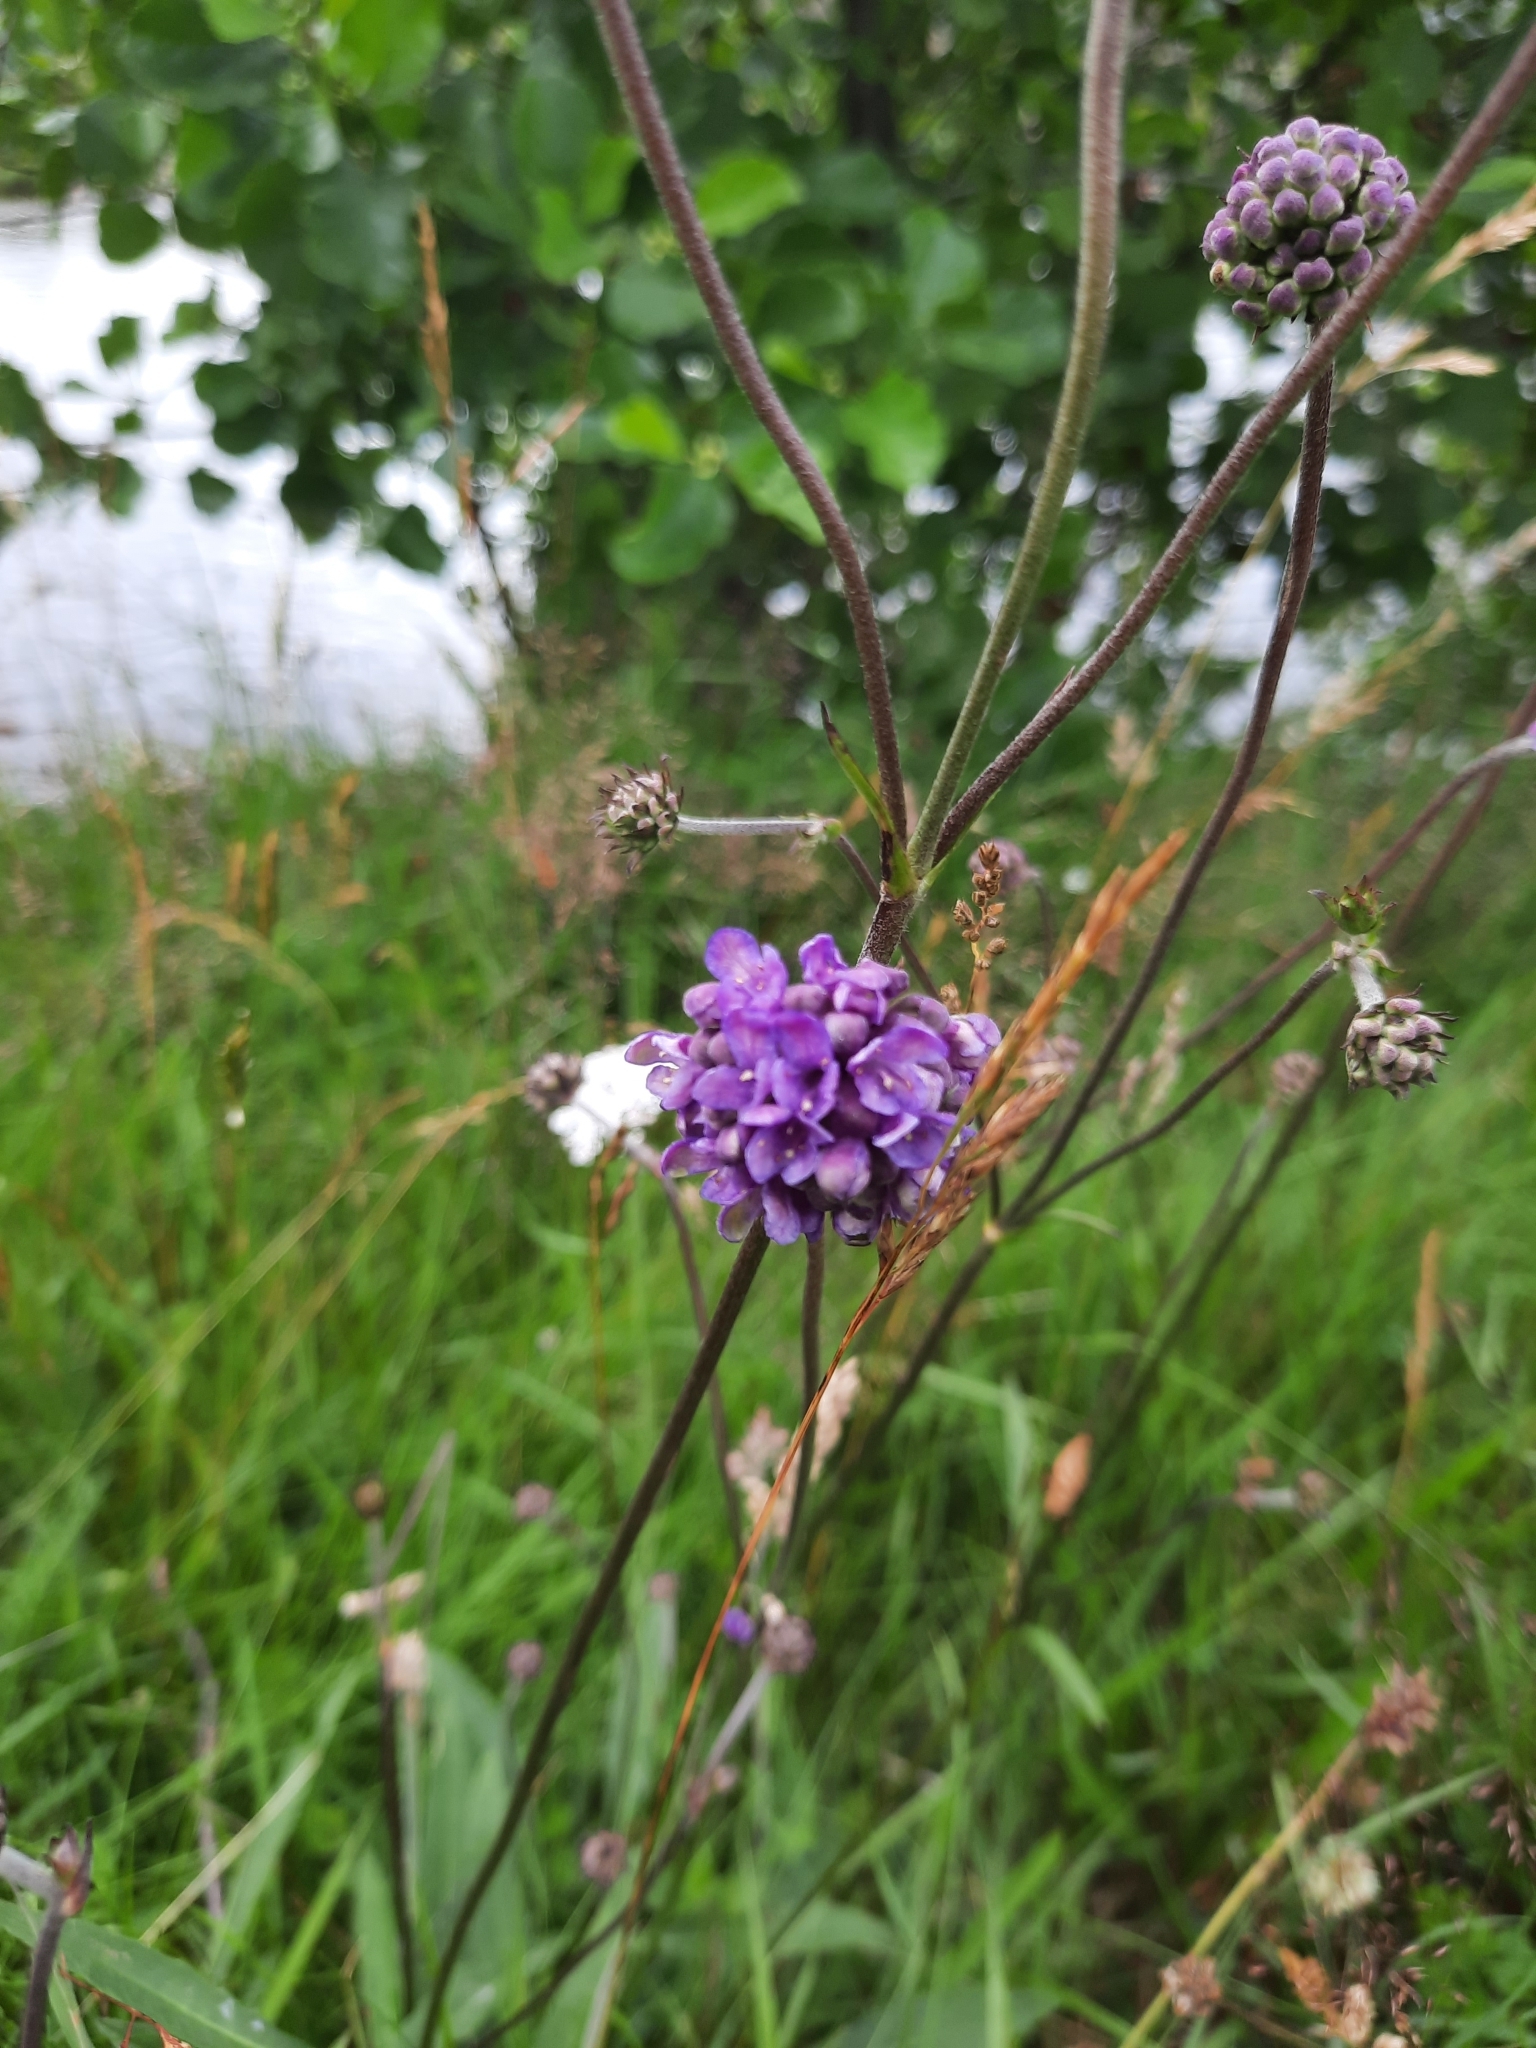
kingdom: Plantae
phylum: Tracheophyta
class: Magnoliopsida
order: Dipsacales
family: Caprifoliaceae
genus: Succisa
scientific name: Succisa pratensis
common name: Devil's-bit
